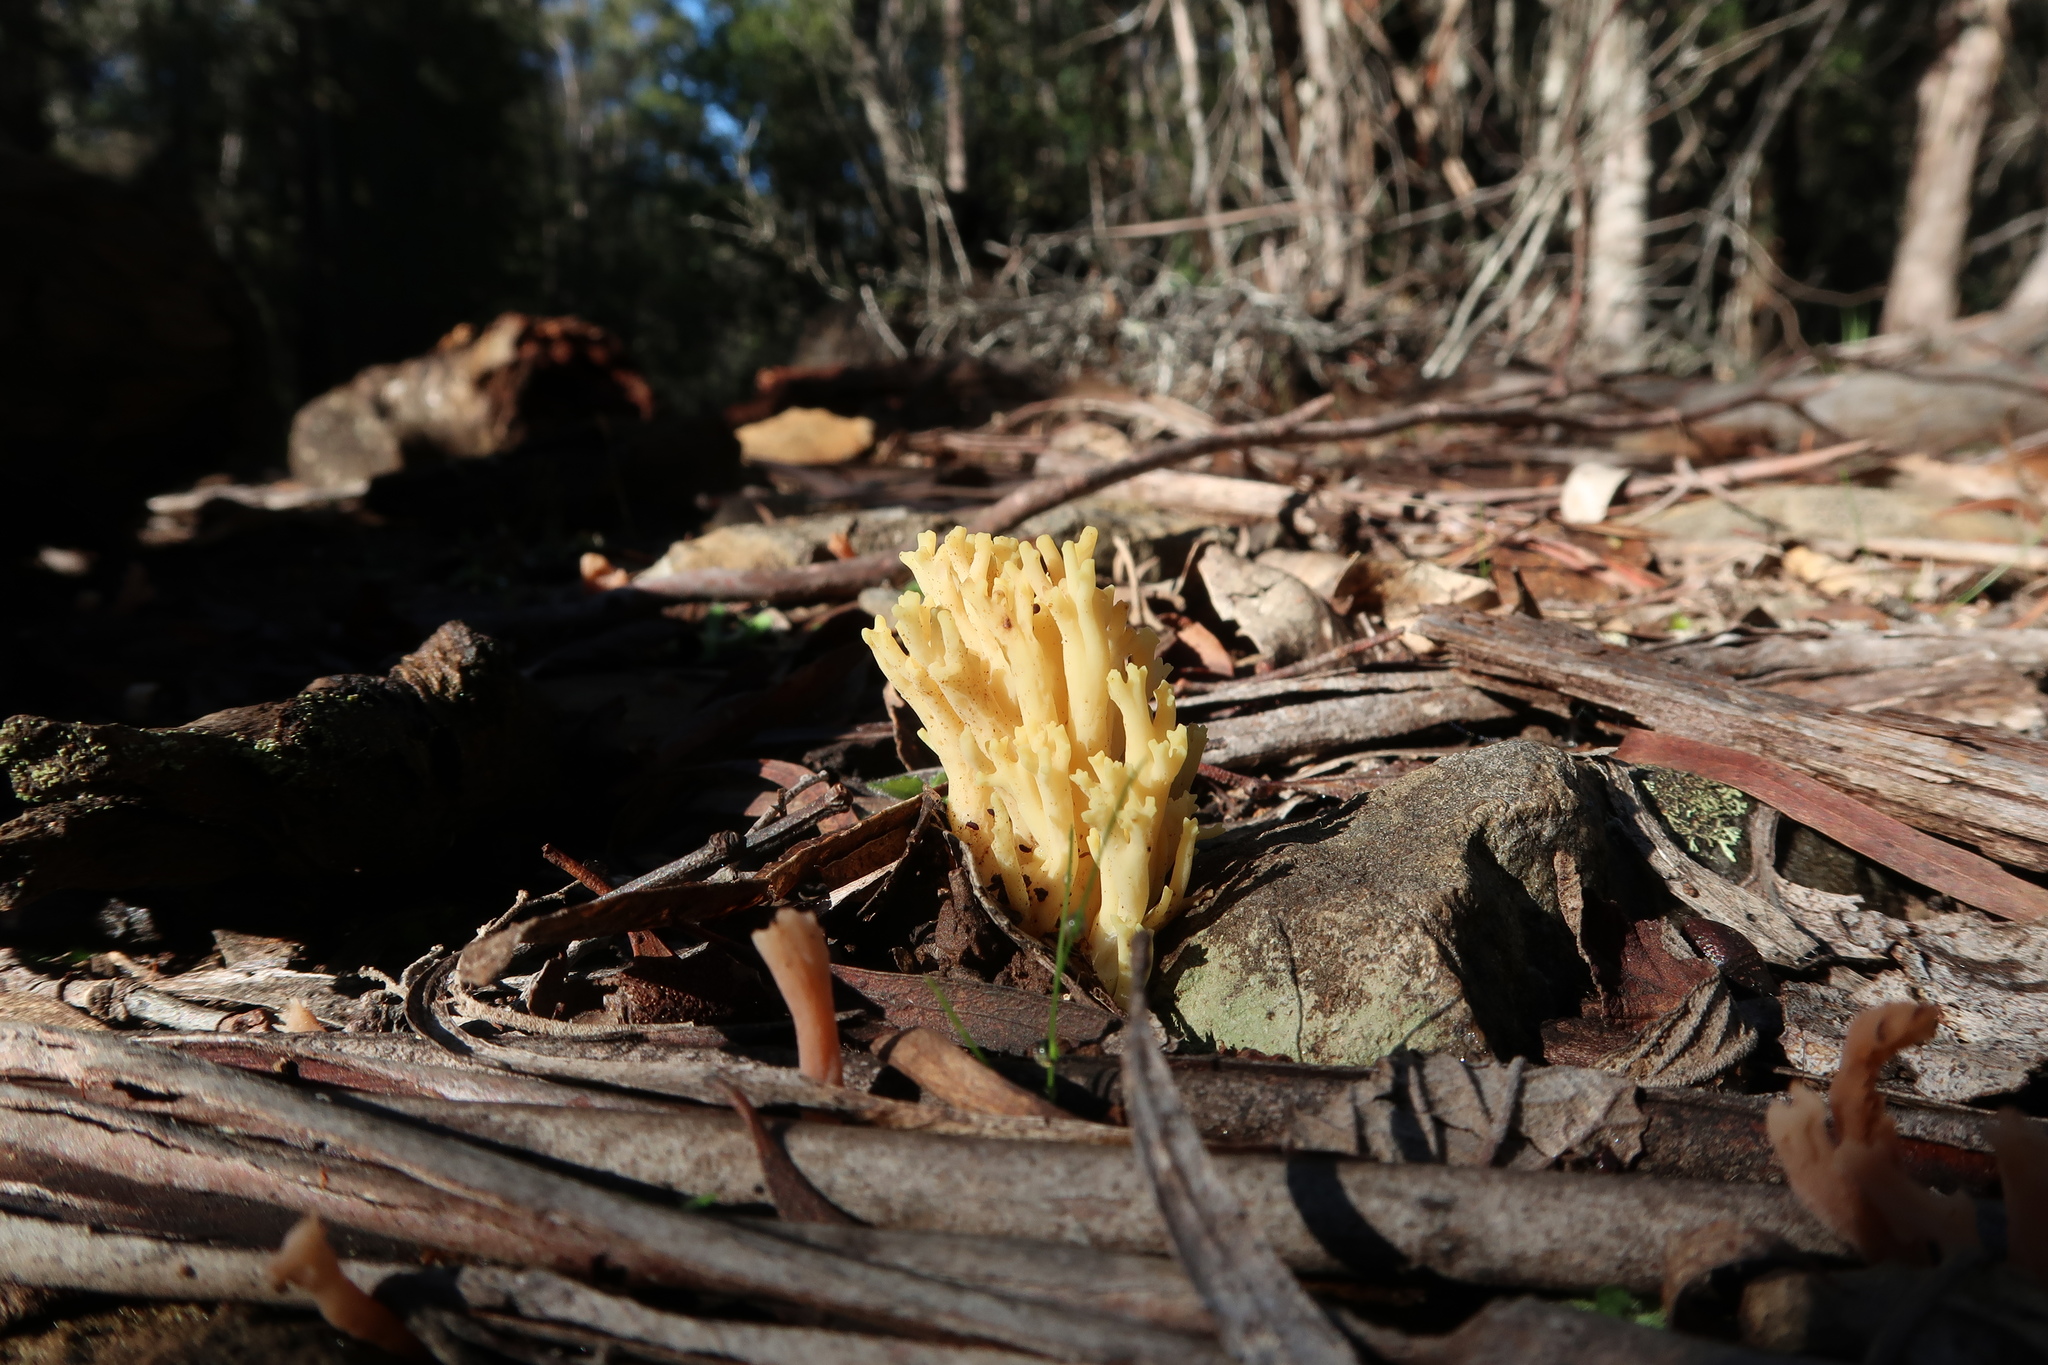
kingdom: Fungi
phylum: Basidiomycota
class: Agaricomycetes
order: Gomphales
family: Gomphaceae
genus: Ramaria
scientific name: Ramaria lorithamnus
